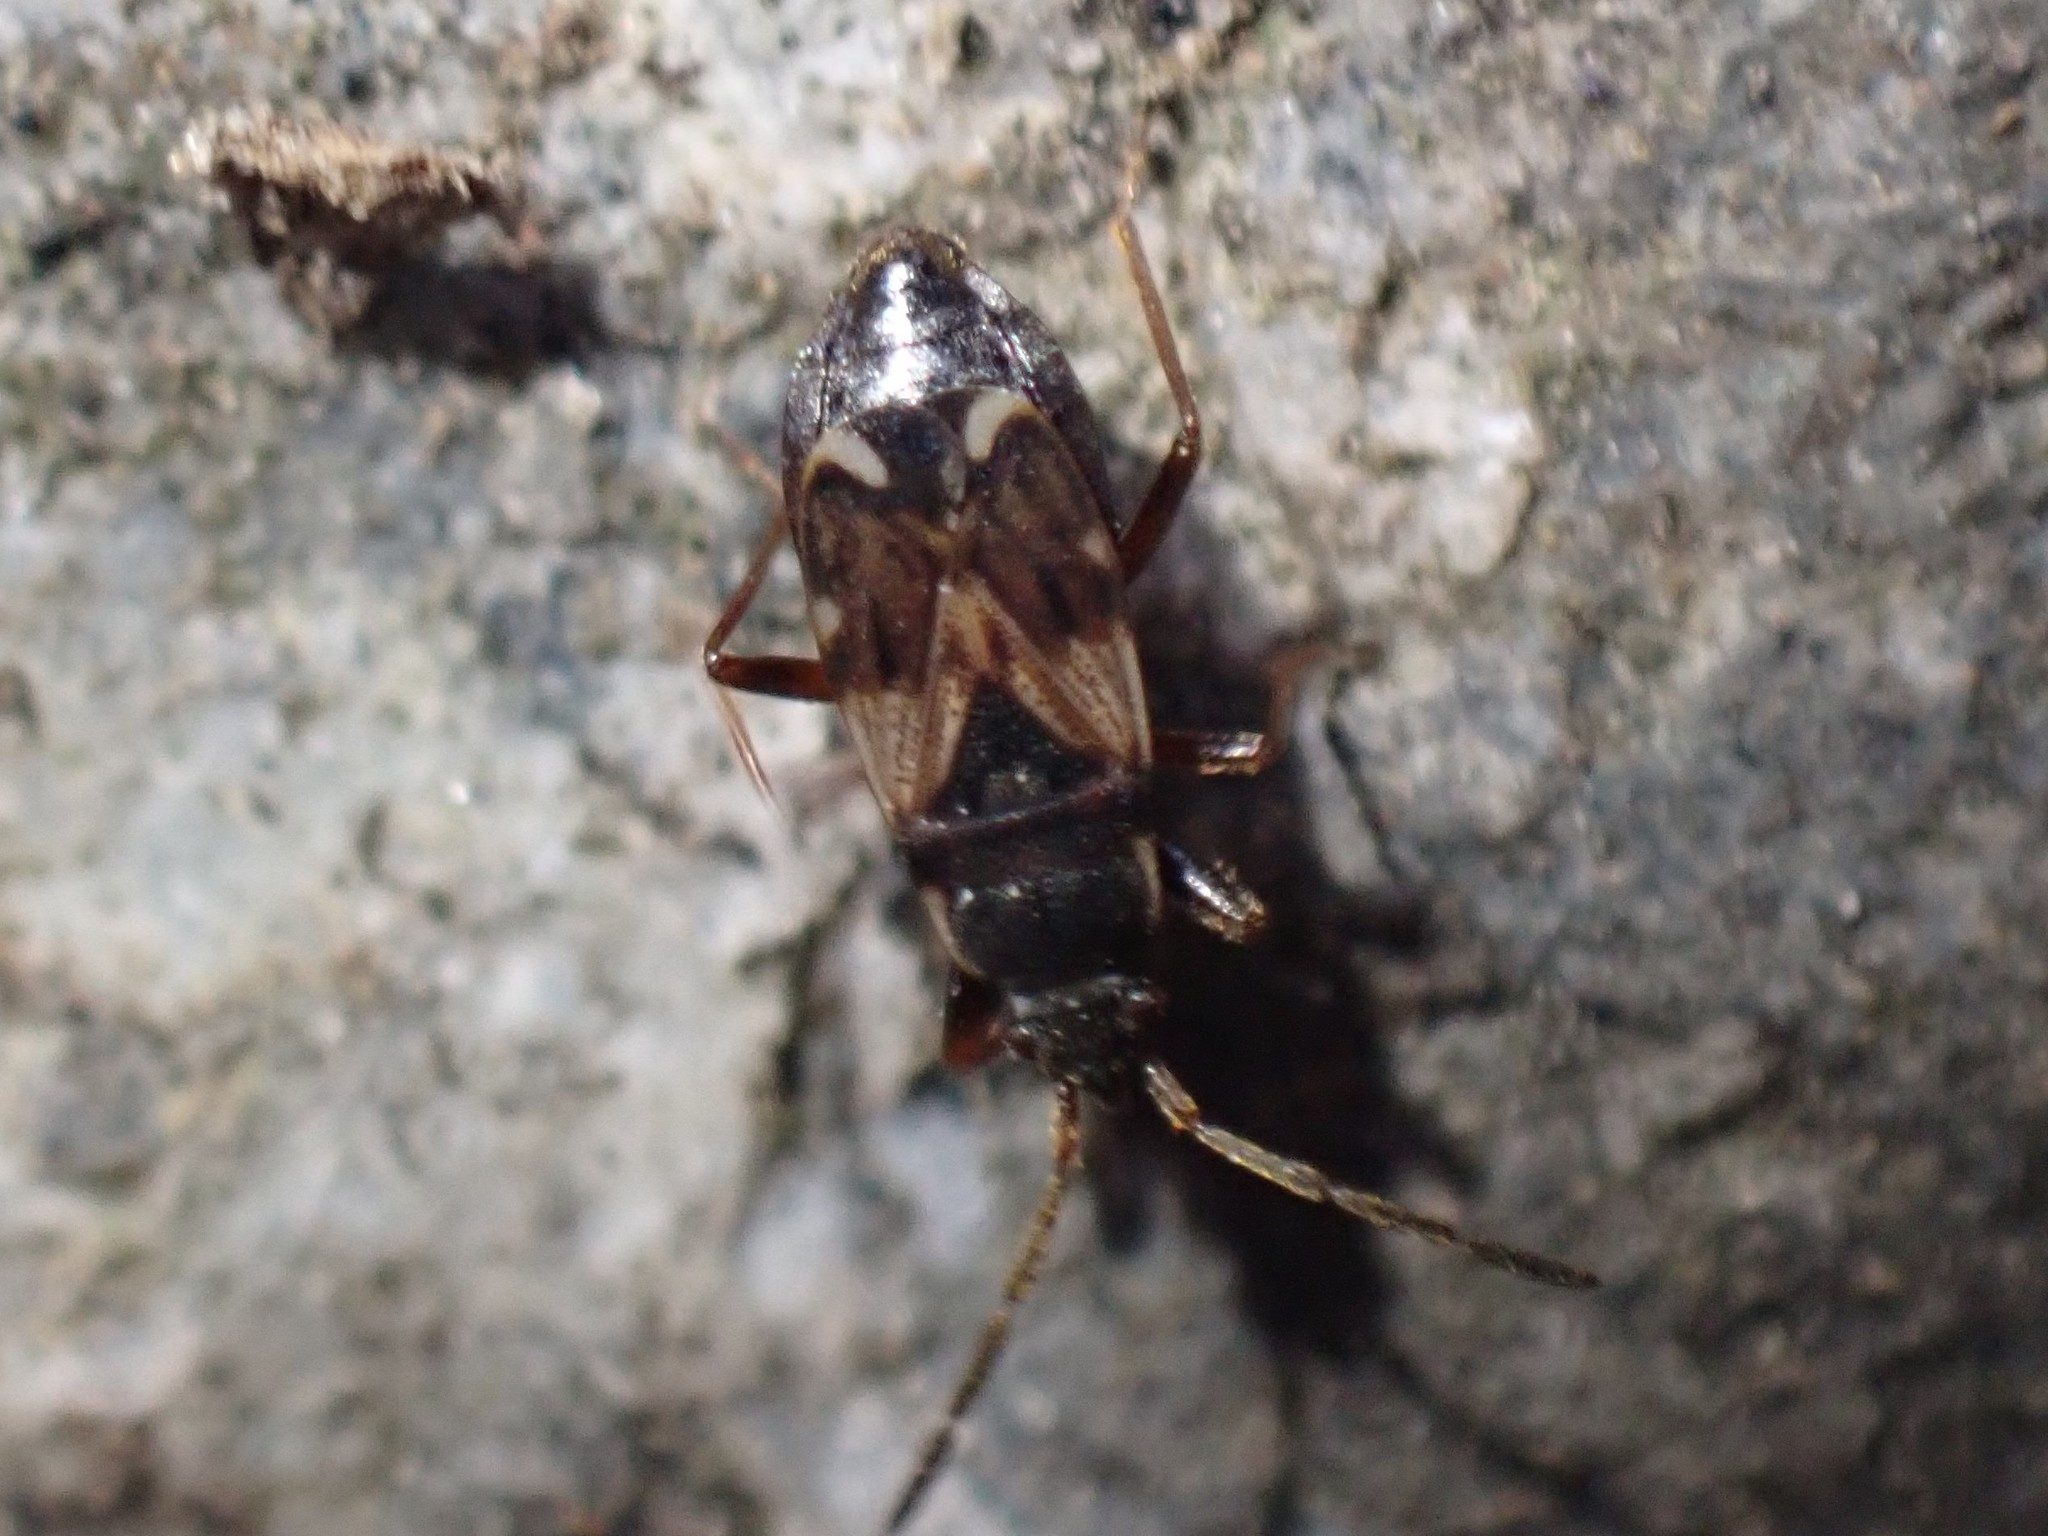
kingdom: Animalia
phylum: Arthropoda
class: Insecta
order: Hemiptera
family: Rhyparochromidae
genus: Scolopostethus
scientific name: Scolopostethus diffidens
